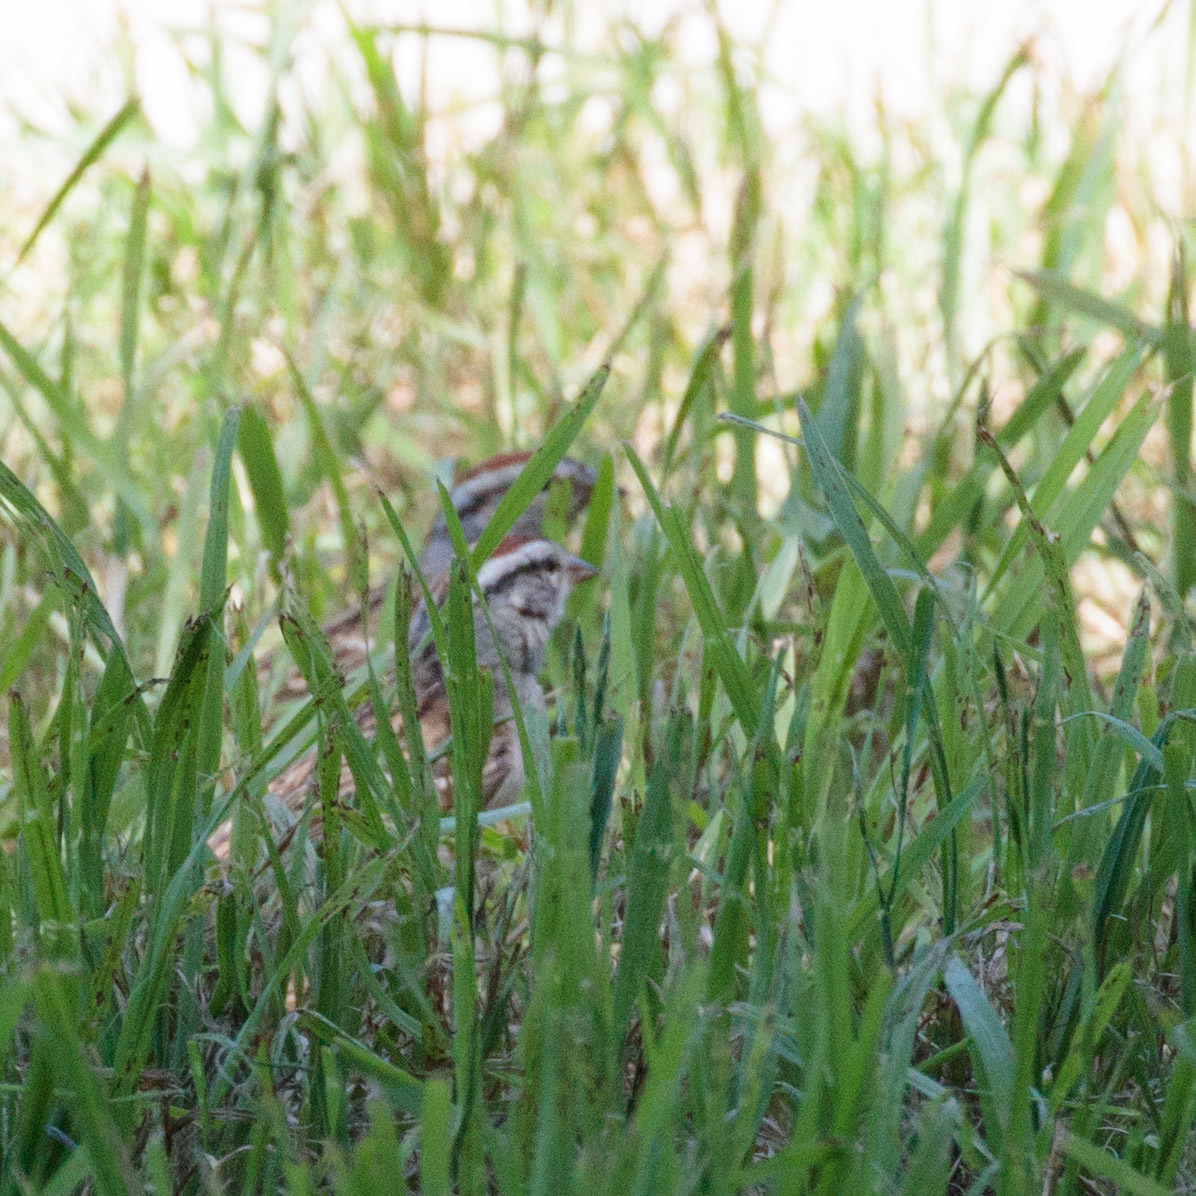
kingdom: Animalia
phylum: Chordata
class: Aves
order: Passeriformes
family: Passerellidae
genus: Spizella
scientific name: Spizella passerina
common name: Chipping sparrow
